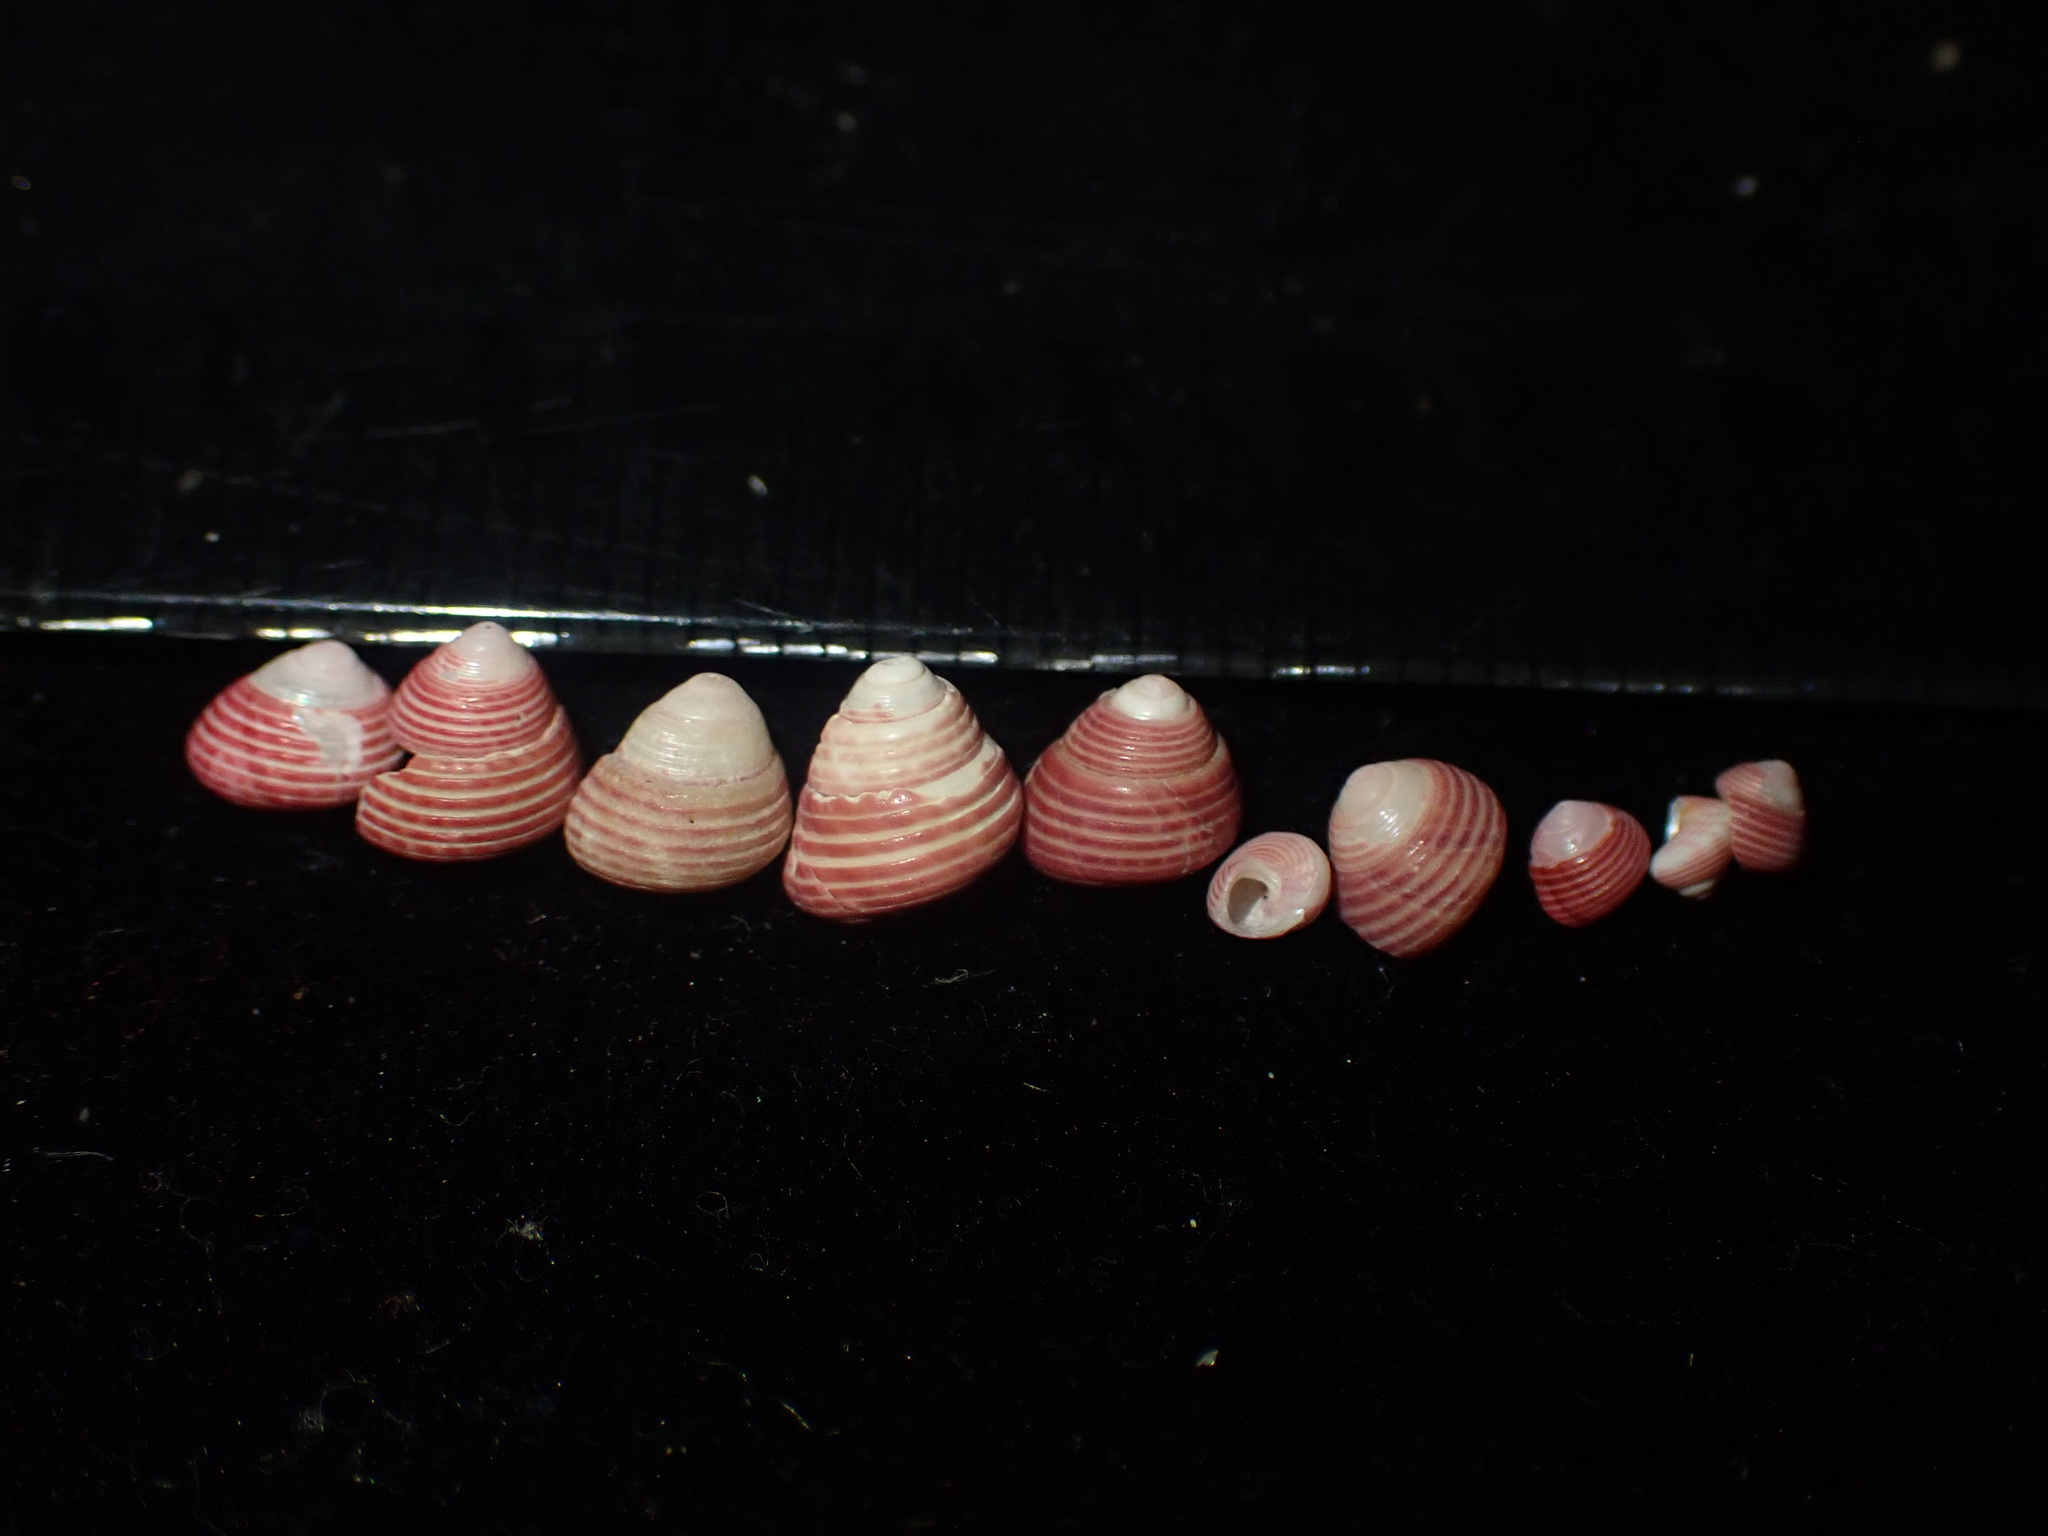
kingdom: Animalia
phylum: Mollusca
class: Gastropoda
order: Trochida
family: Trochidae
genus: Roseaplagis
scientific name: Roseaplagis mortenseni
